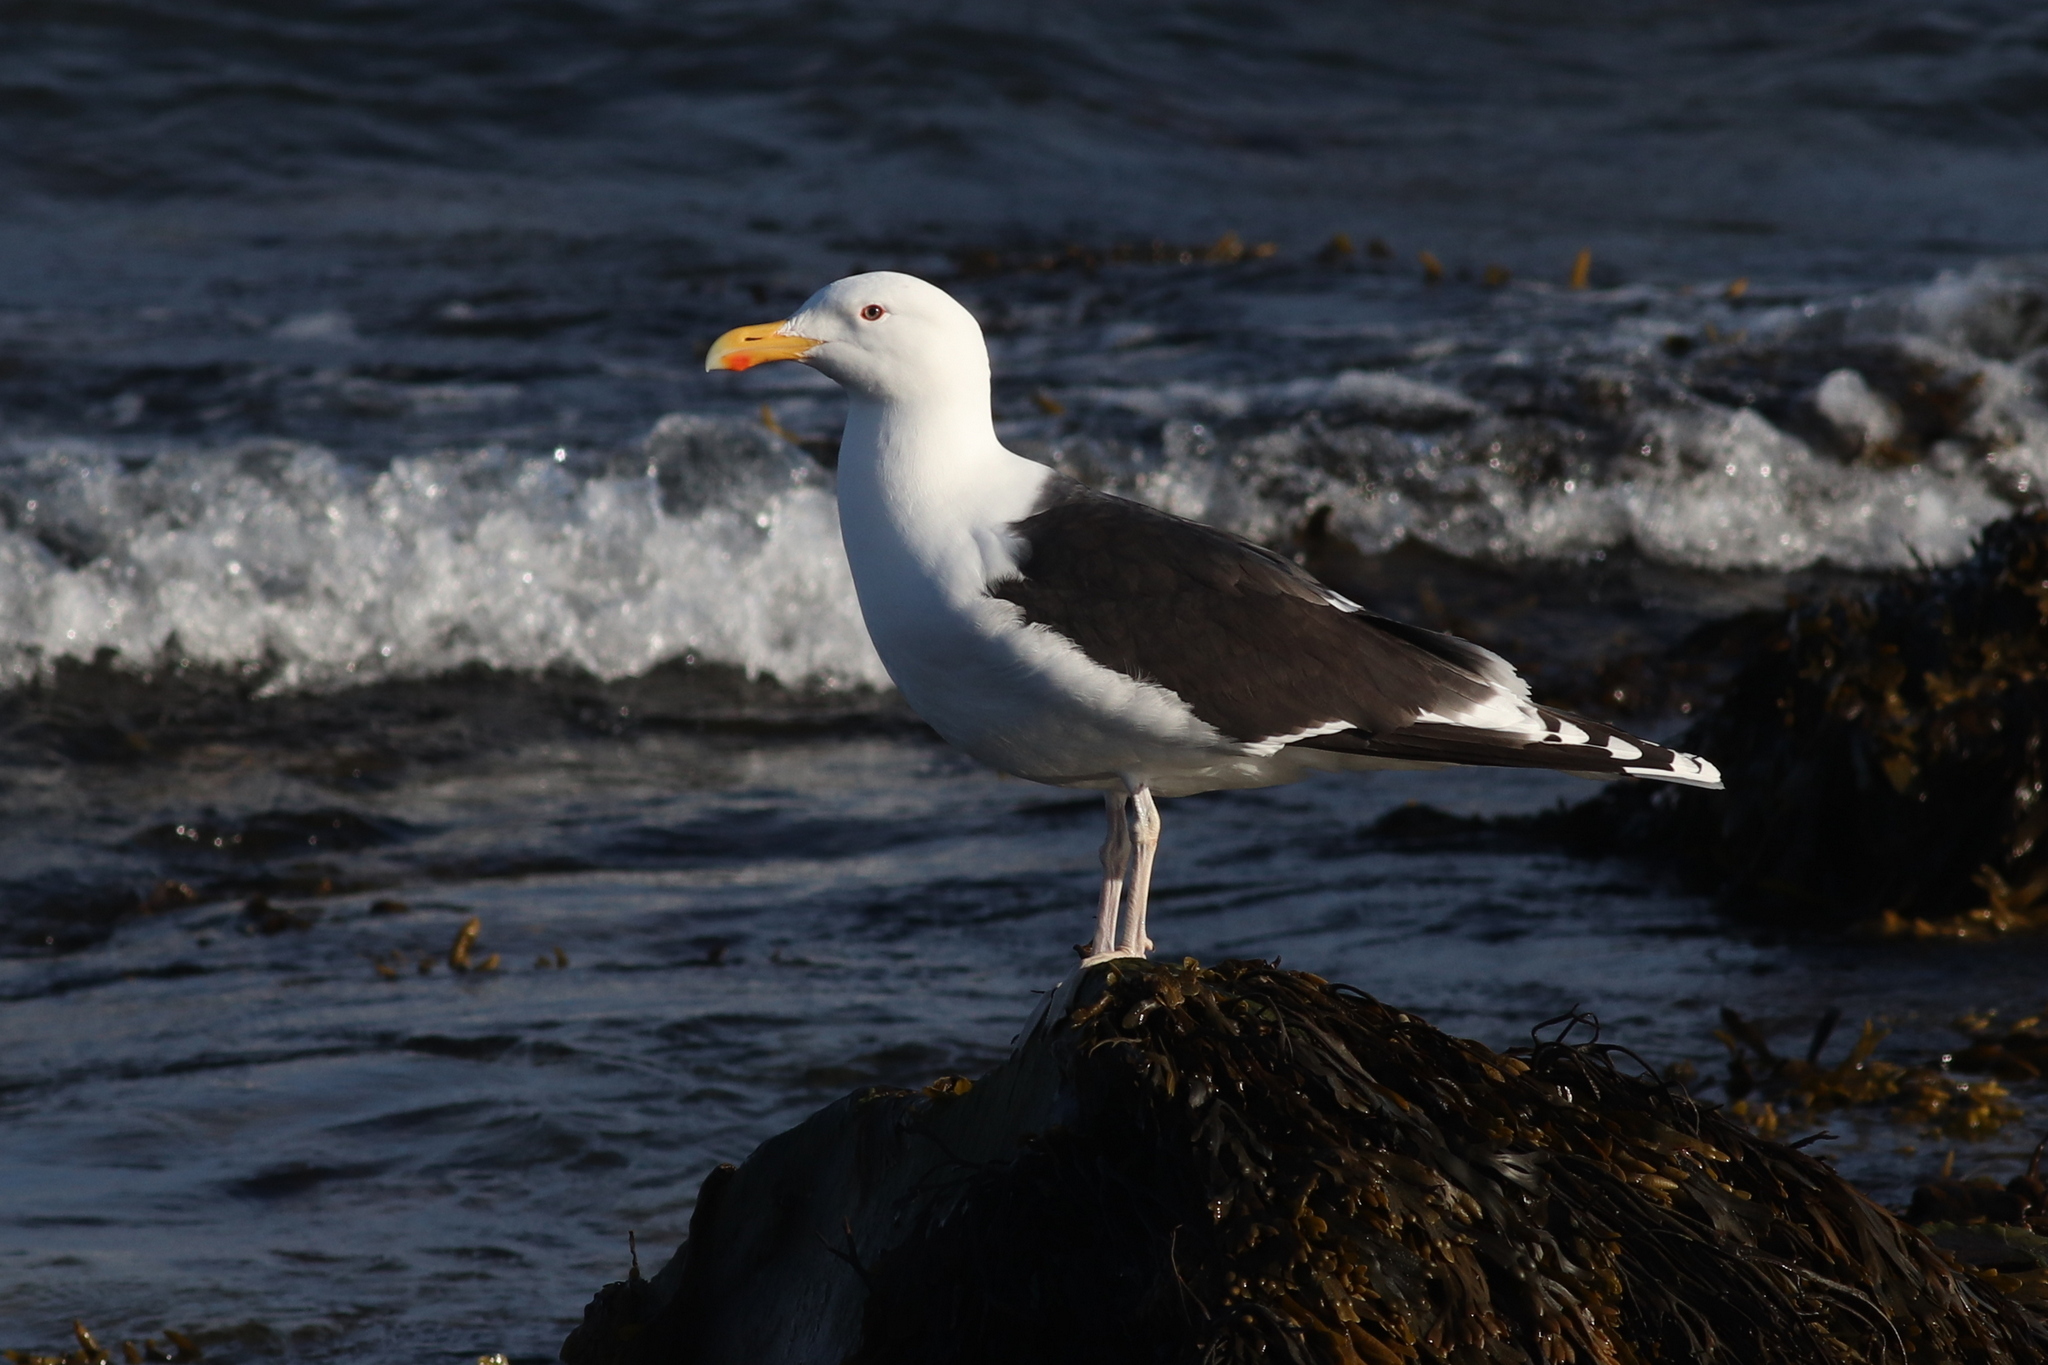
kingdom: Animalia
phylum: Chordata
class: Aves
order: Charadriiformes
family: Laridae
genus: Larus
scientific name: Larus marinus
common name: Great black-backed gull
